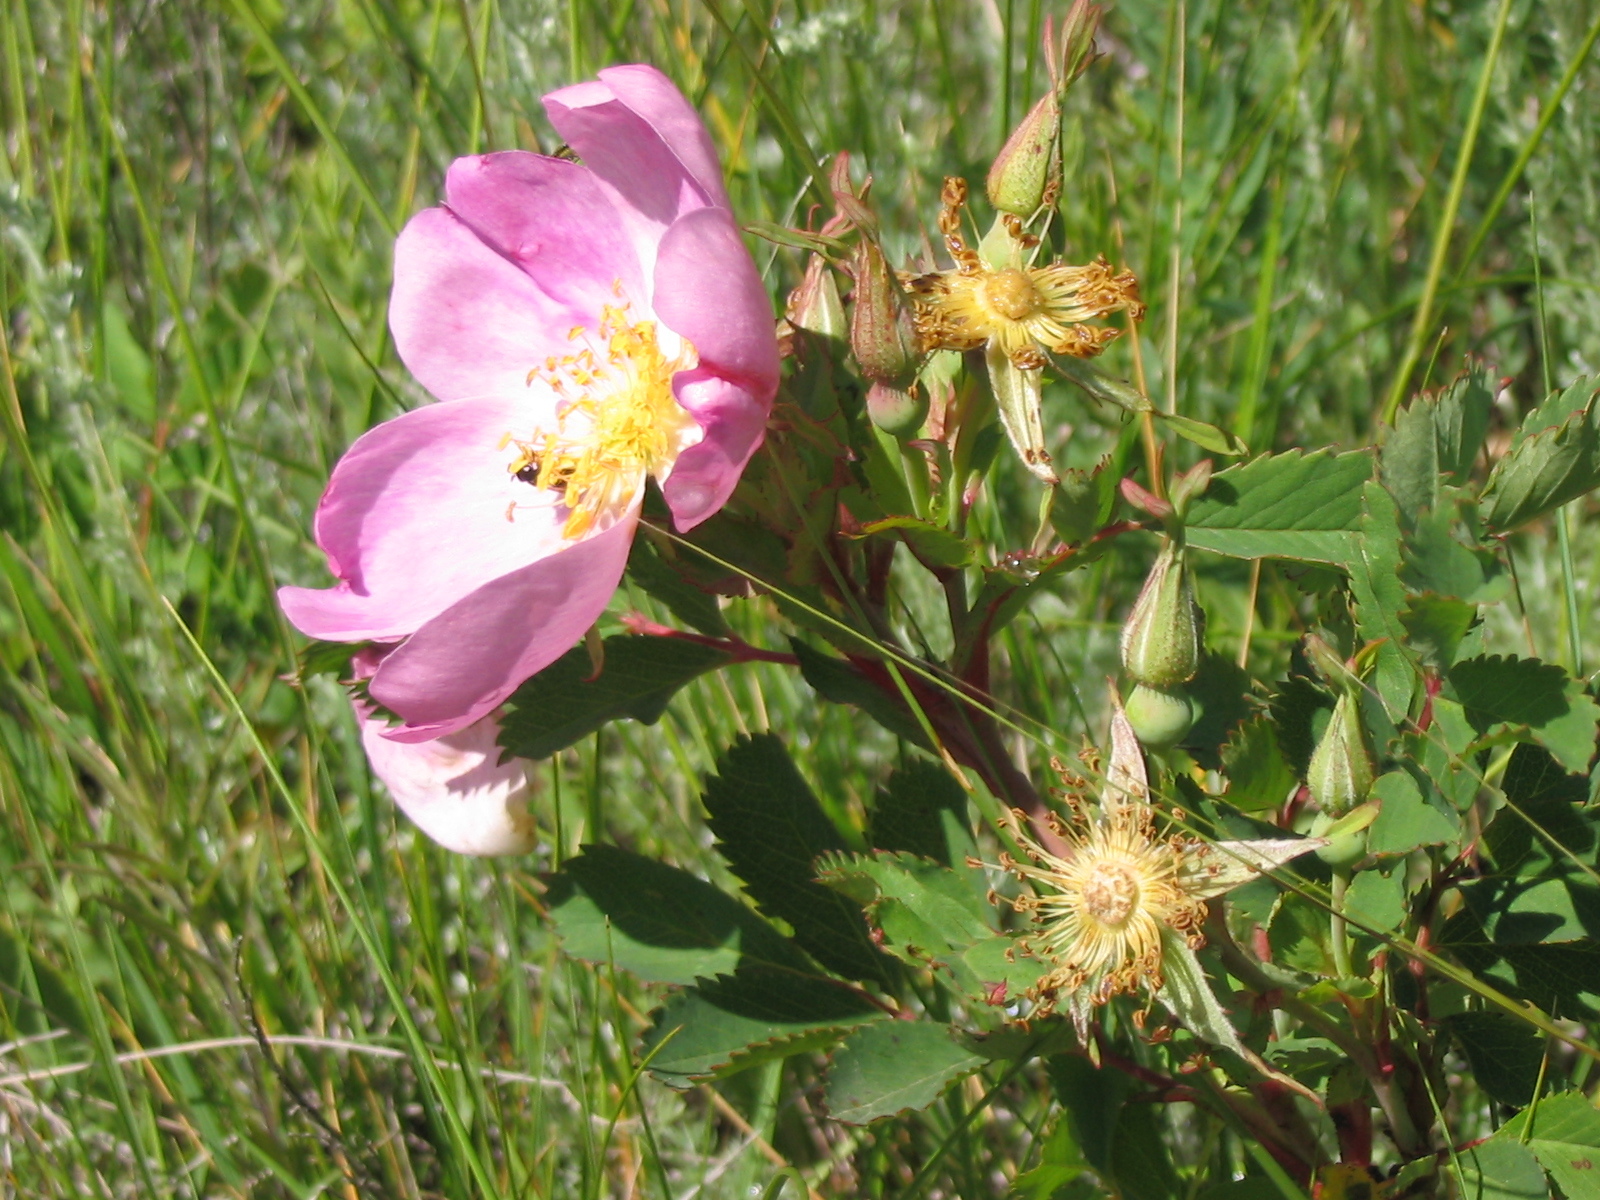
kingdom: Plantae
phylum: Tracheophyta
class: Magnoliopsida
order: Rosales
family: Rosaceae
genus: Rosa
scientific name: Rosa arkansana
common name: Prairie rose
